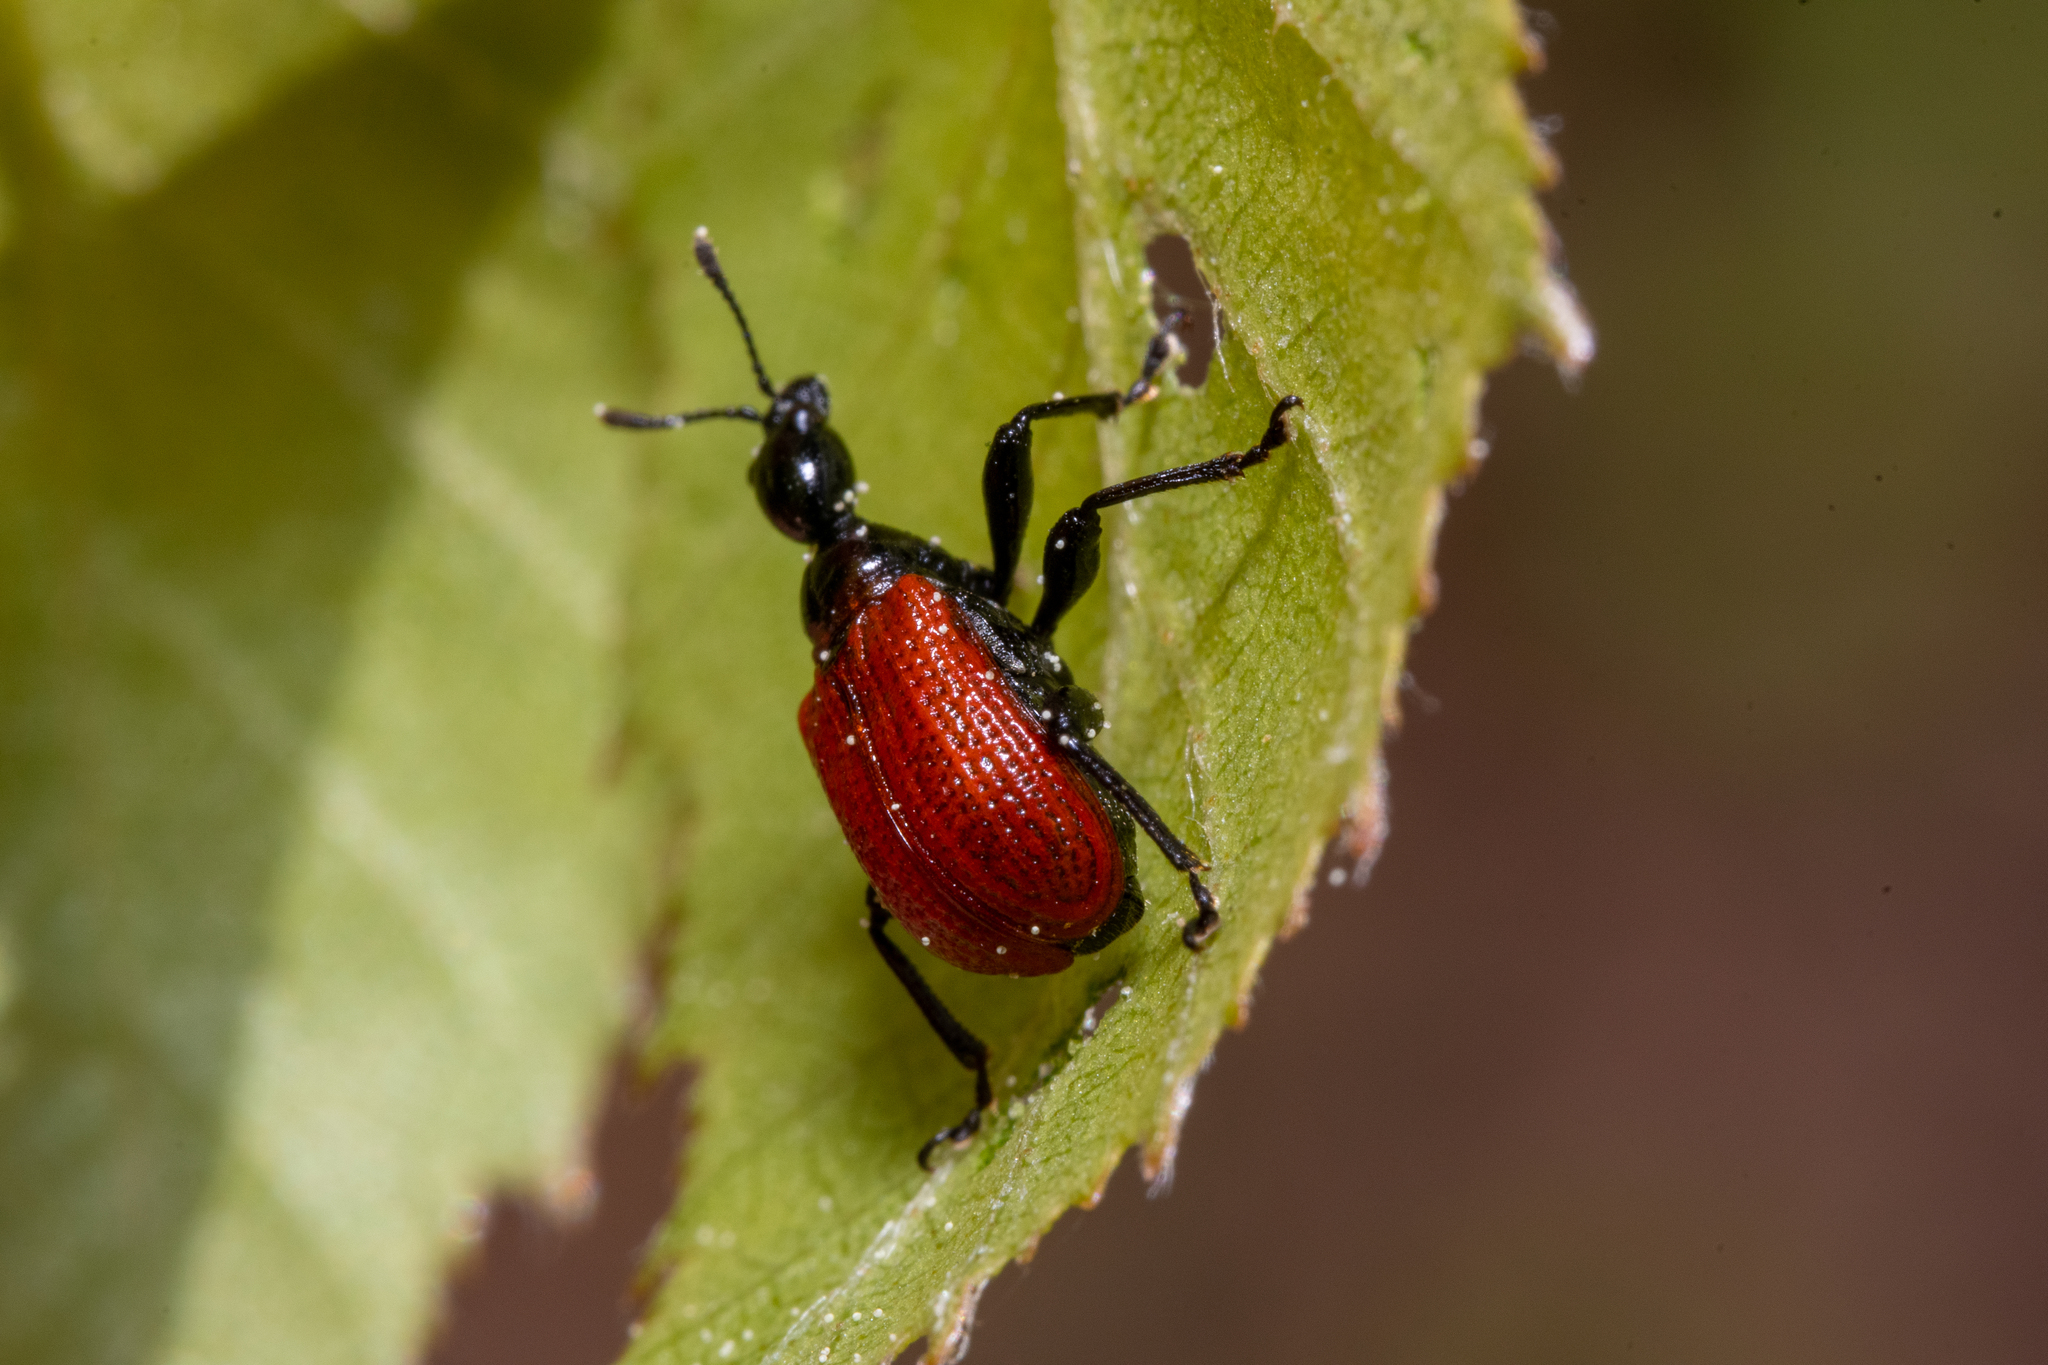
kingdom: Animalia
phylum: Arthropoda
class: Insecta
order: Coleoptera
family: Attelabidae
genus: Apoderus
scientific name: Apoderus coryli
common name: Hazel leaf roller
